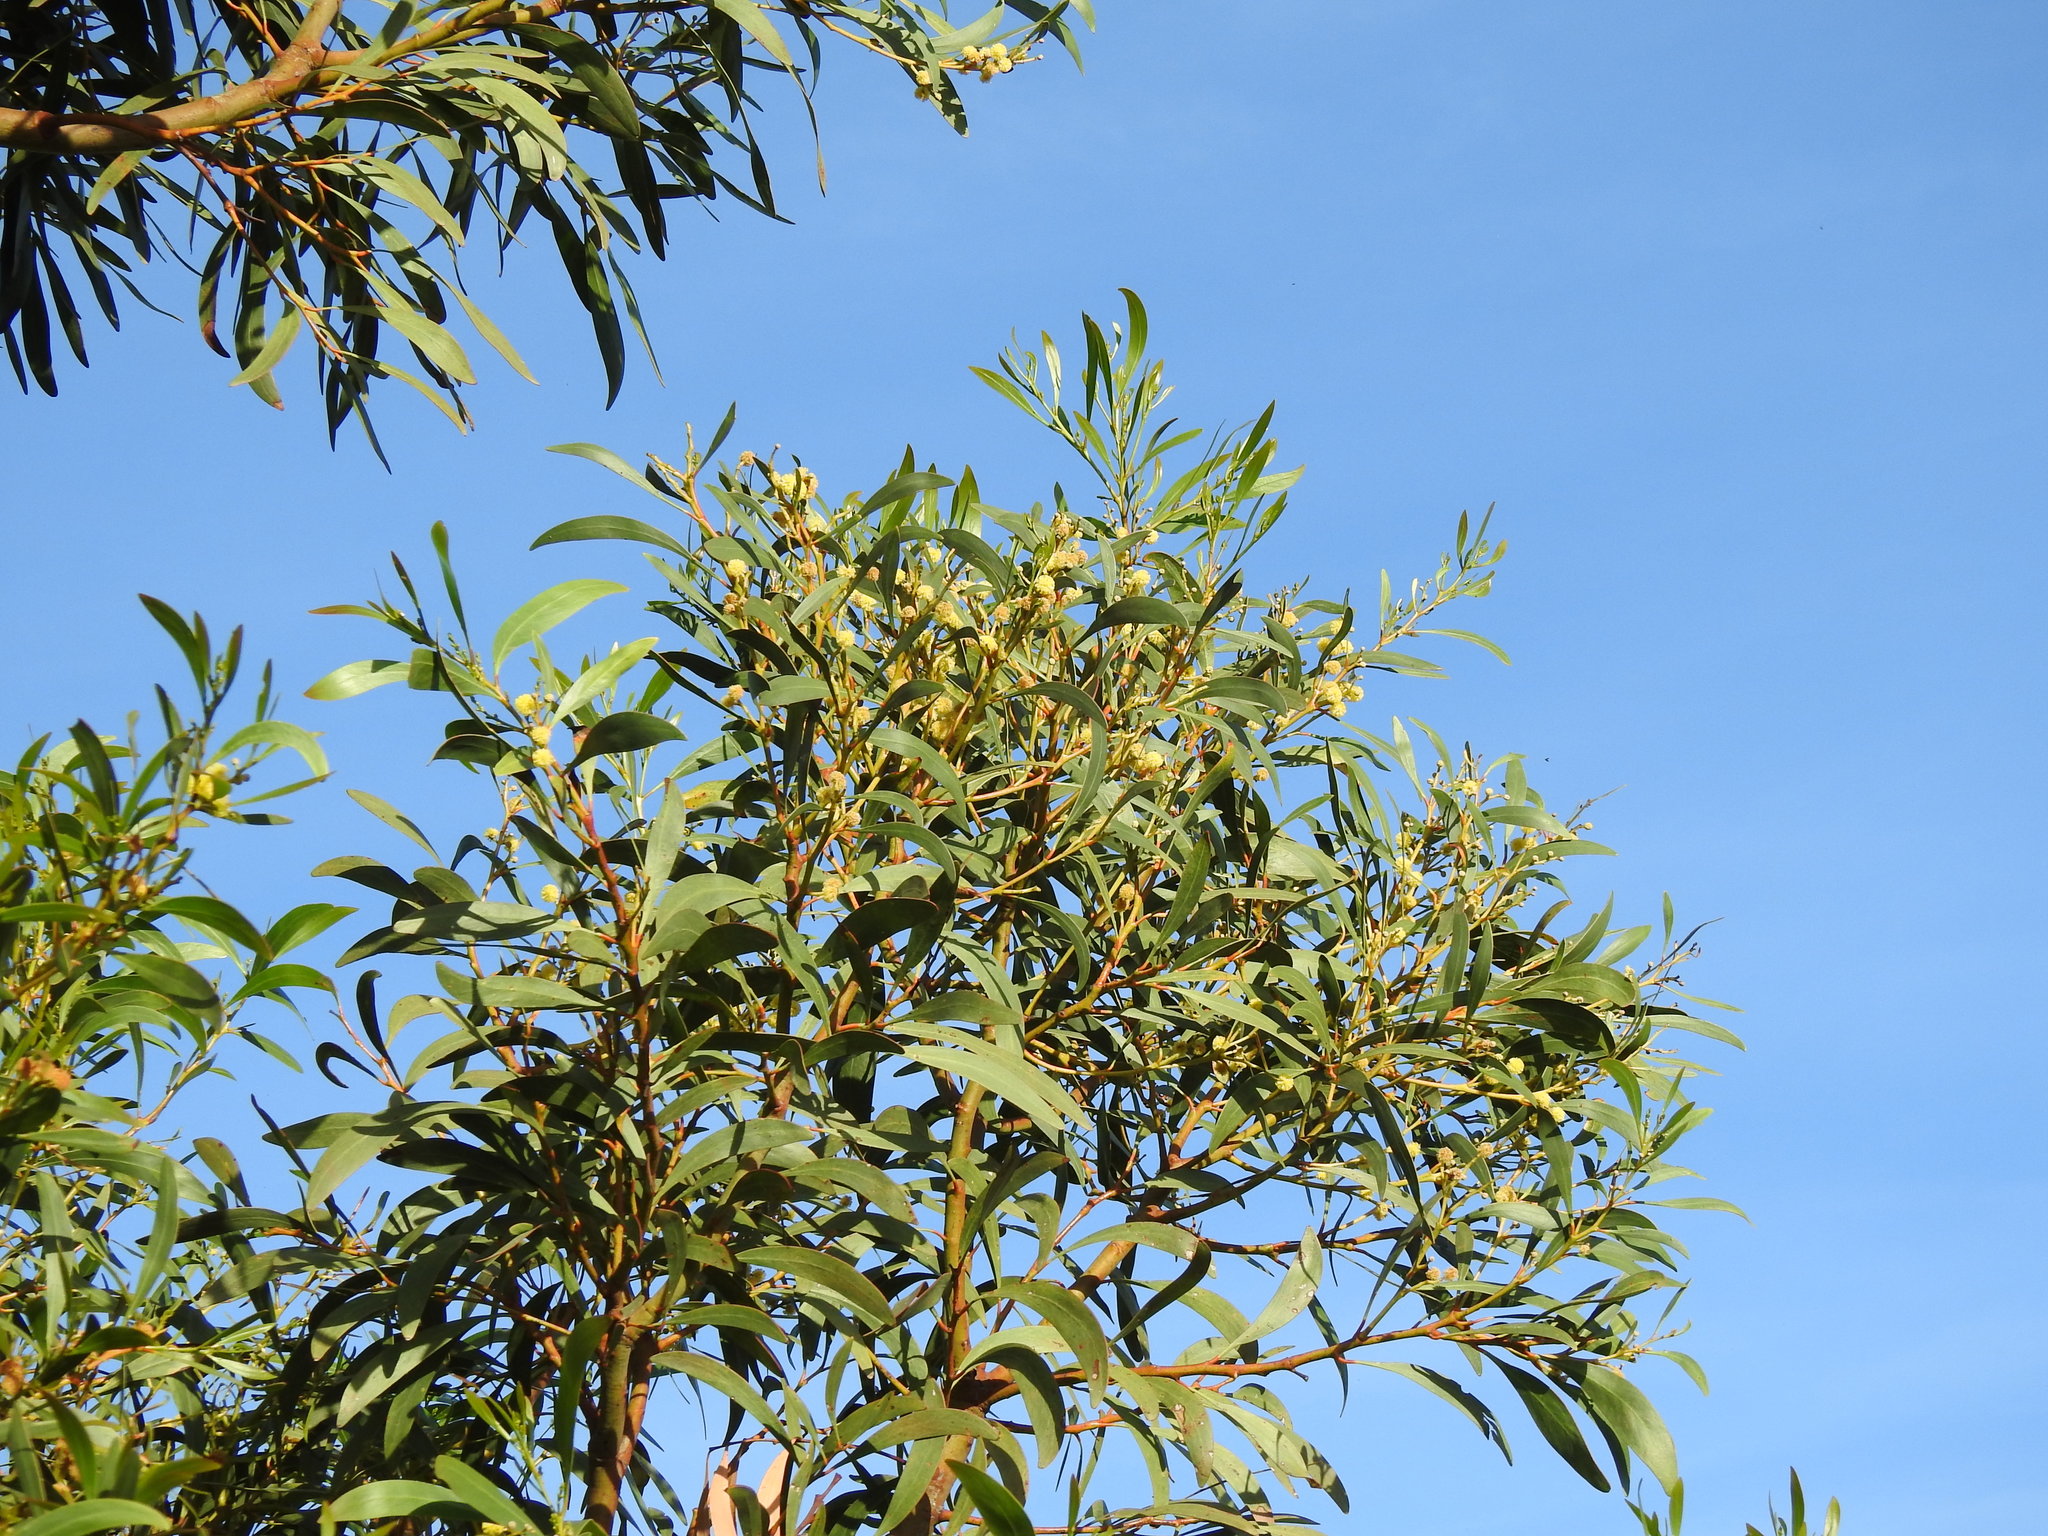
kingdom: Plantae
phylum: Tracheophyta
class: Magnoliopsida
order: Fabales
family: Fabaceae
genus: Acacia
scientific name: Acacia pycnantha
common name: Golden wattle
